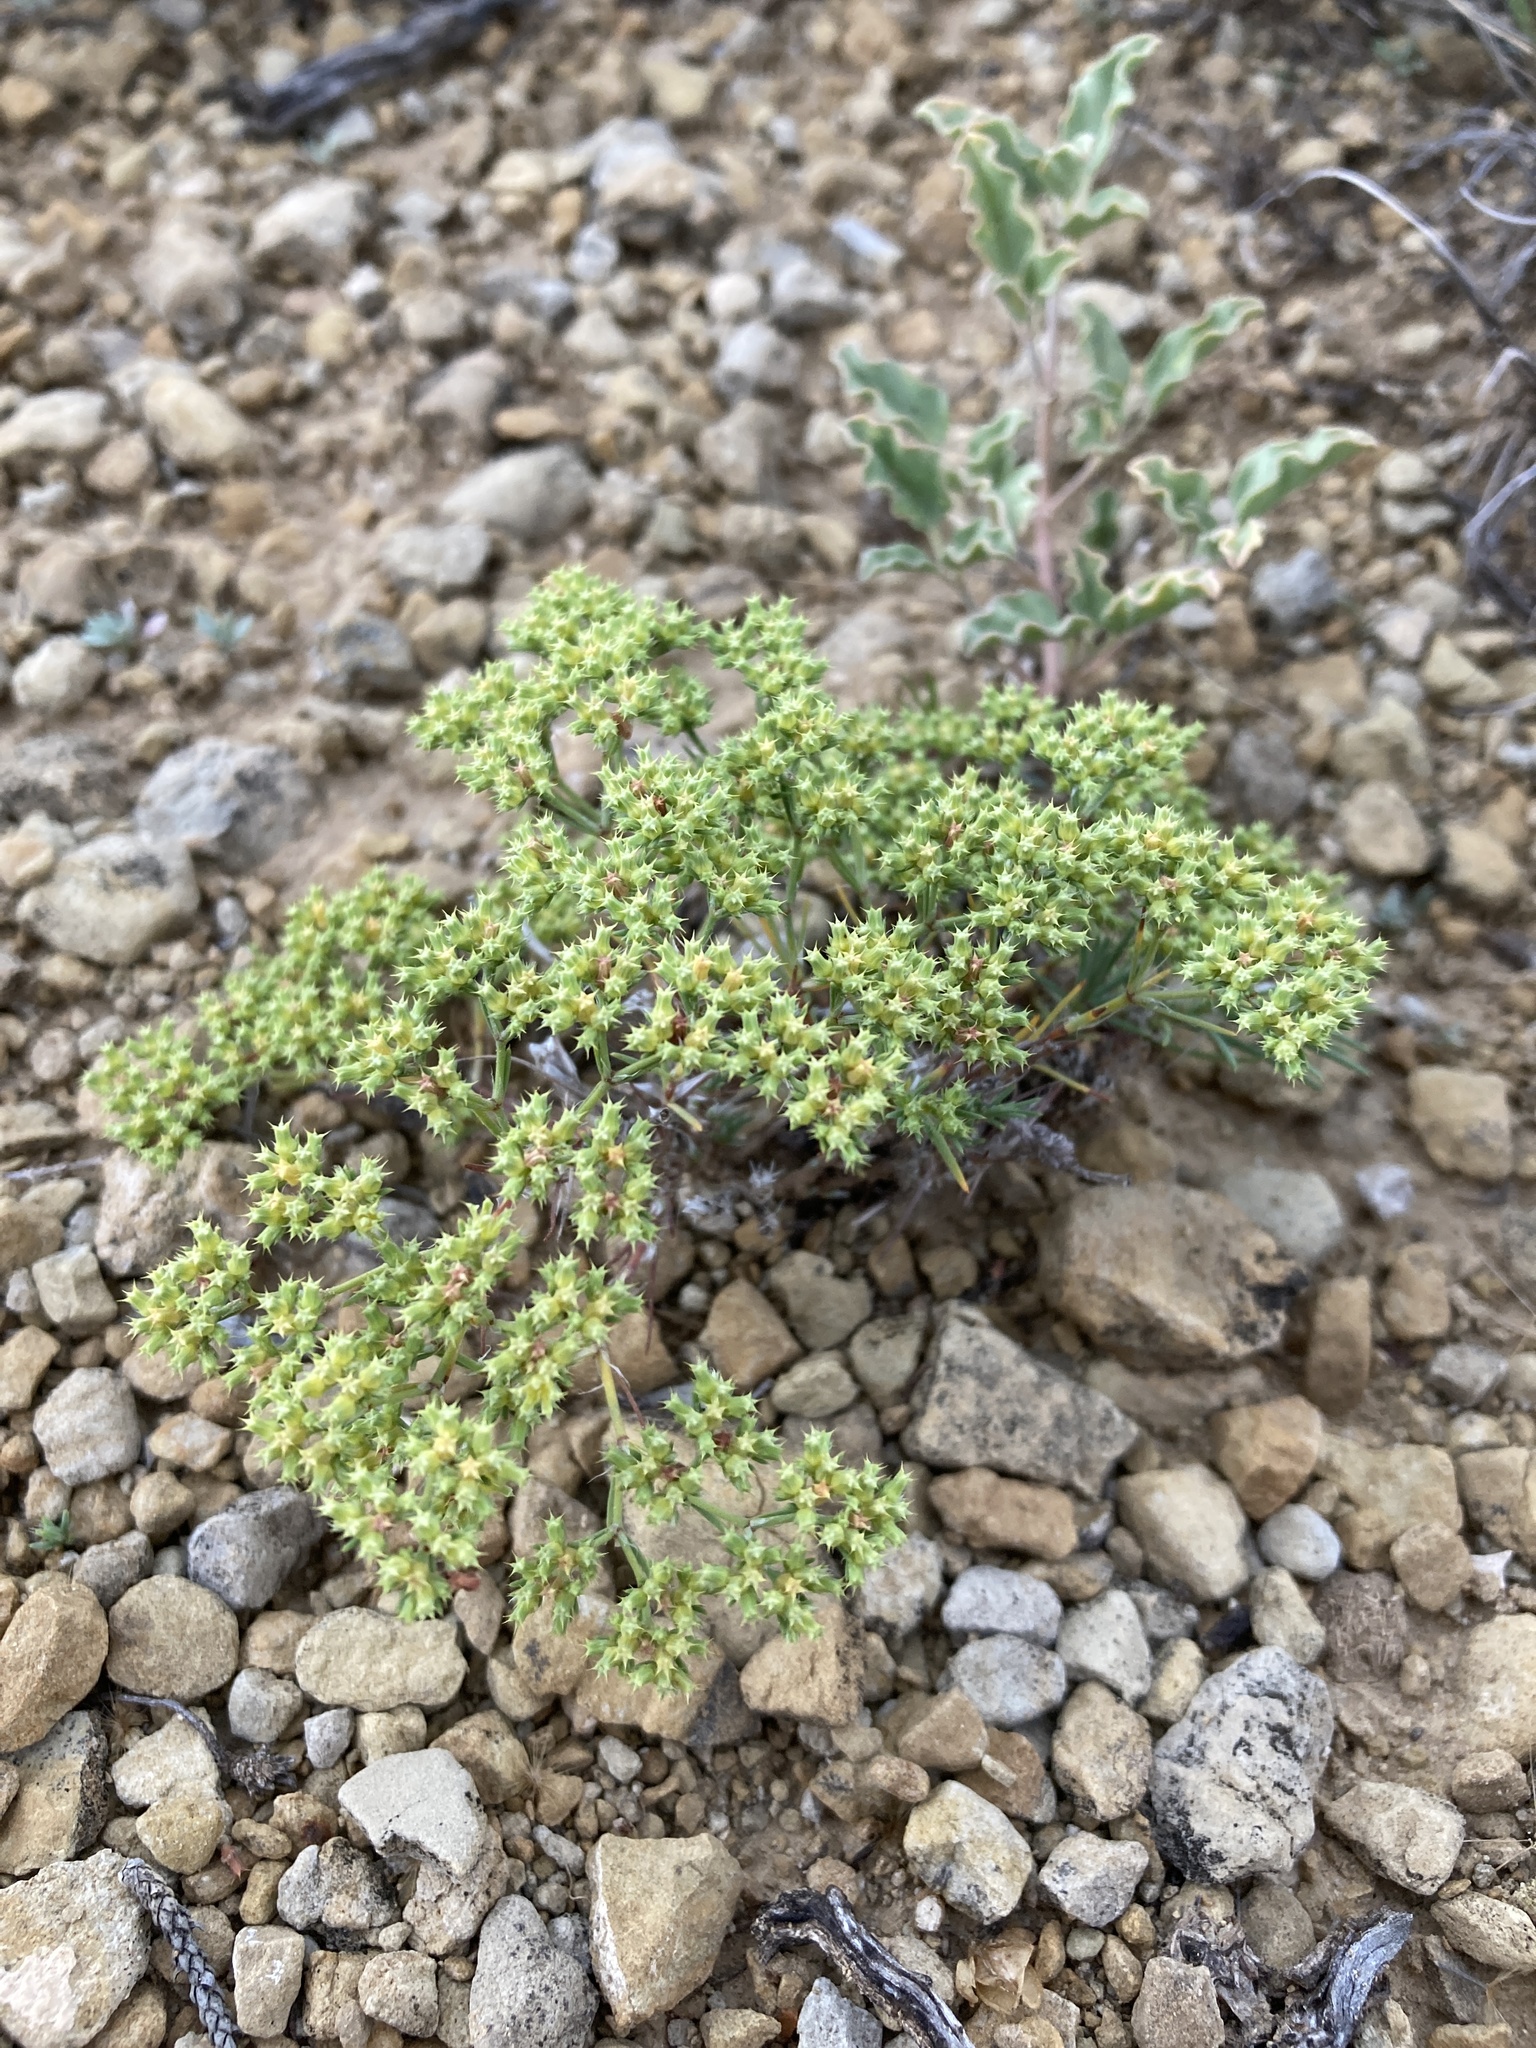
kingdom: Plantae
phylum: Tracheophyta
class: Magnoliopsida
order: Caryophyllales
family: Caryophyllaceae
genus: Paronychia
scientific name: Paronychia jamesii
